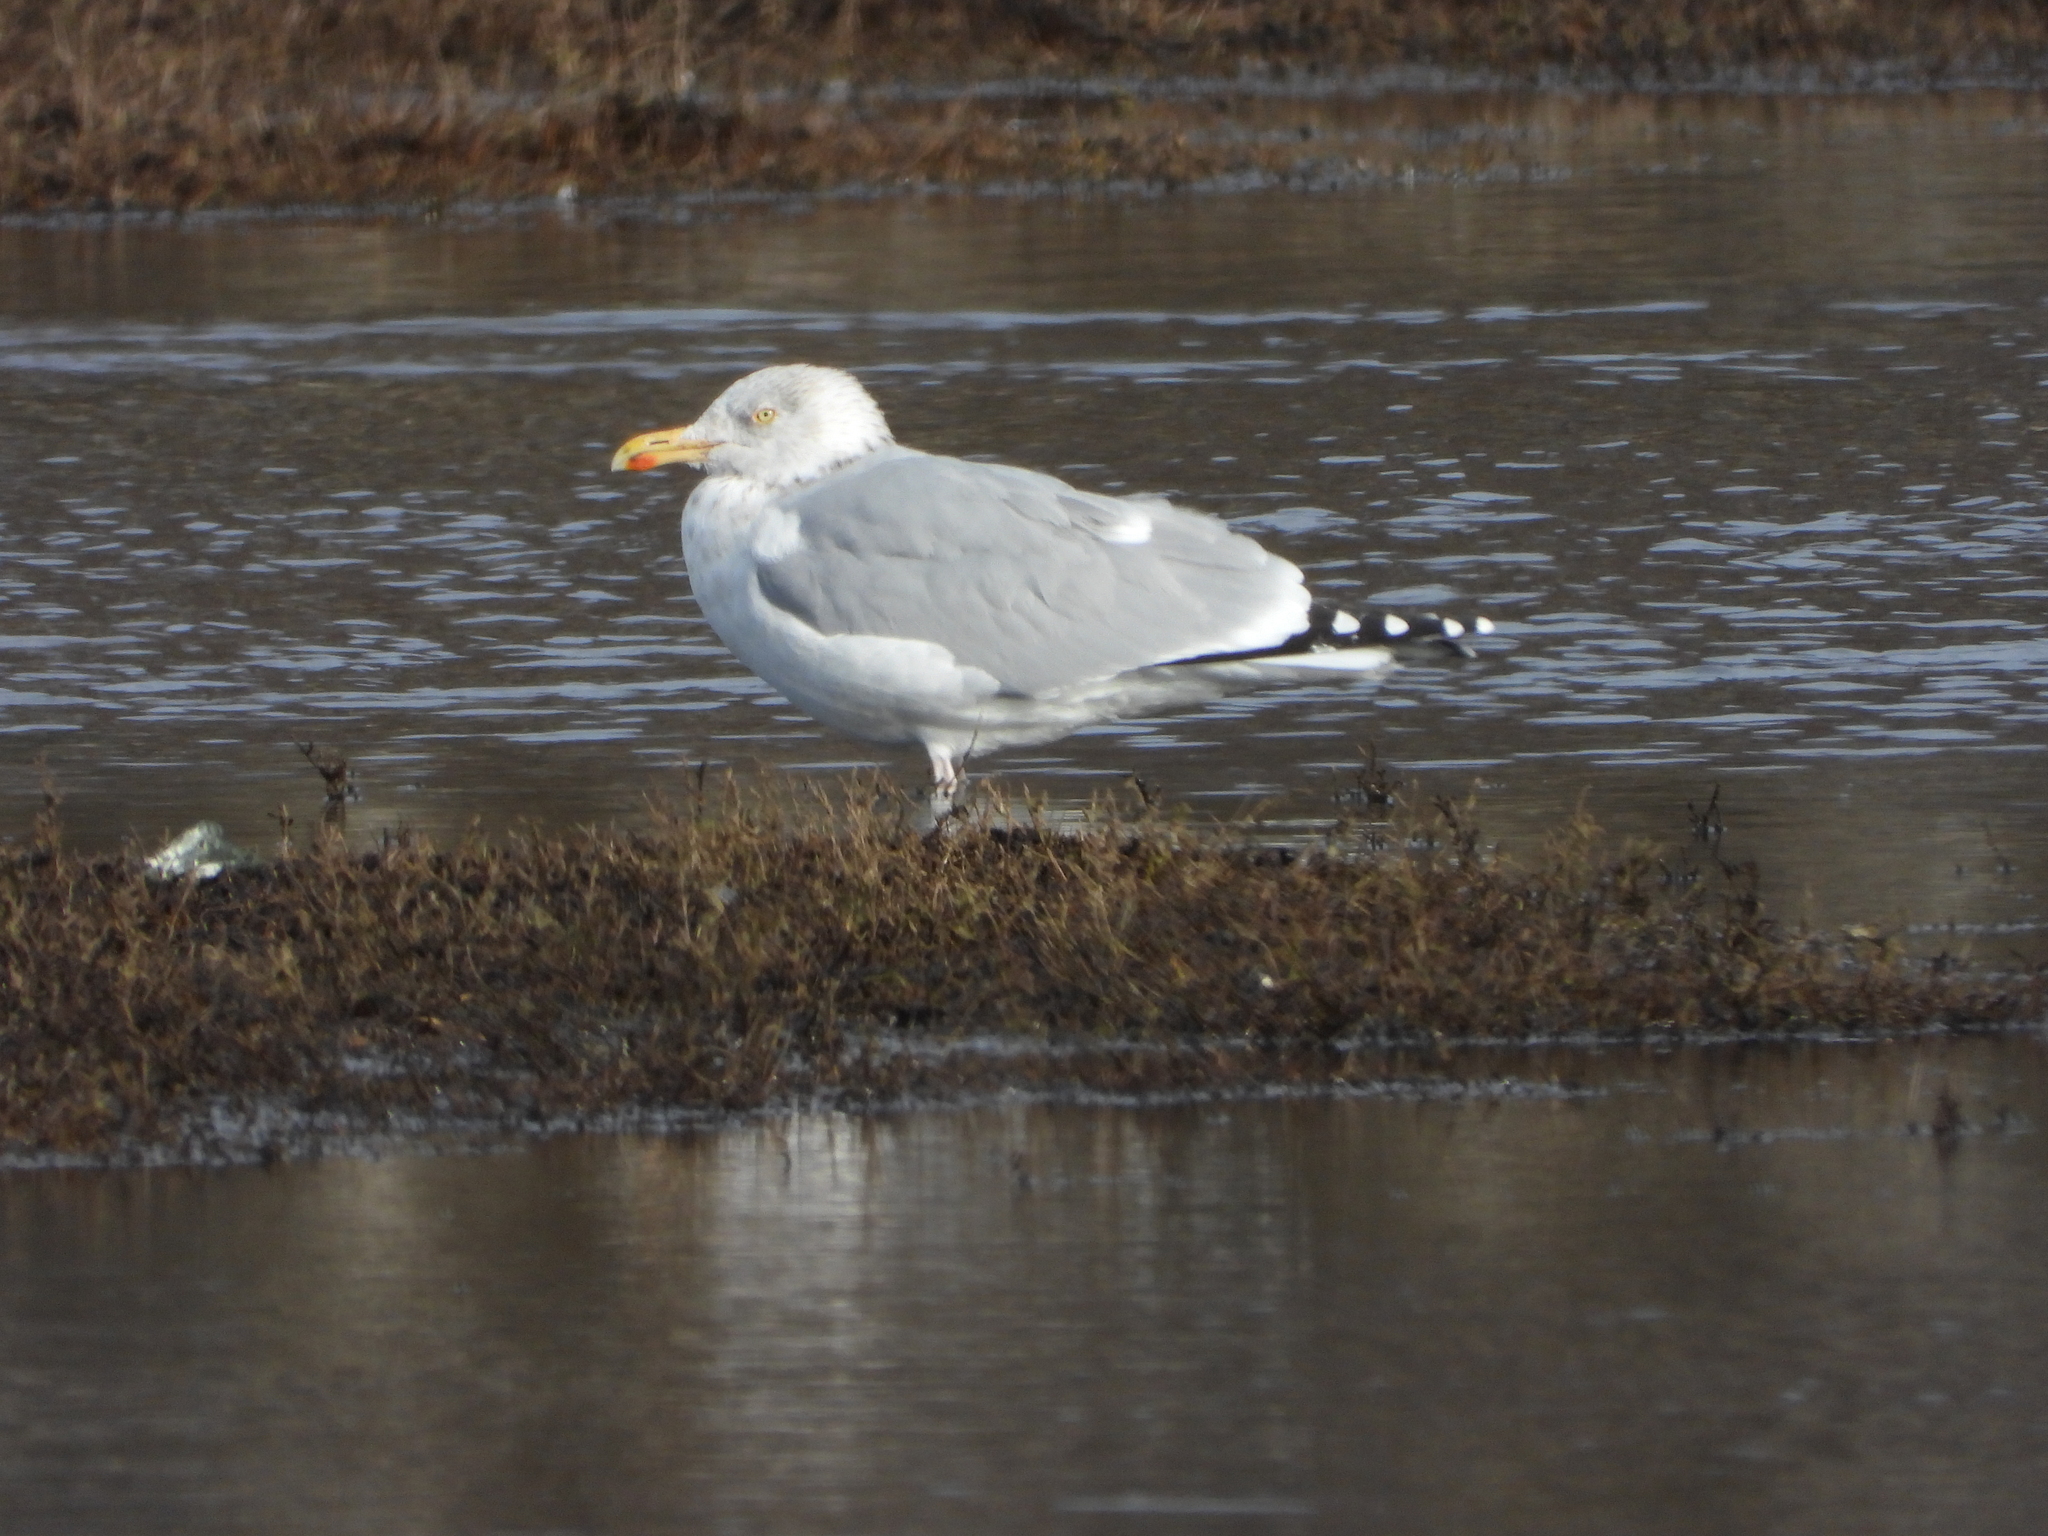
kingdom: Animalia
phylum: Chordata
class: Aves
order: Charadriiformes
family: Laridae
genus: Larus
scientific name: Larus argentatus
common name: Herring gull
